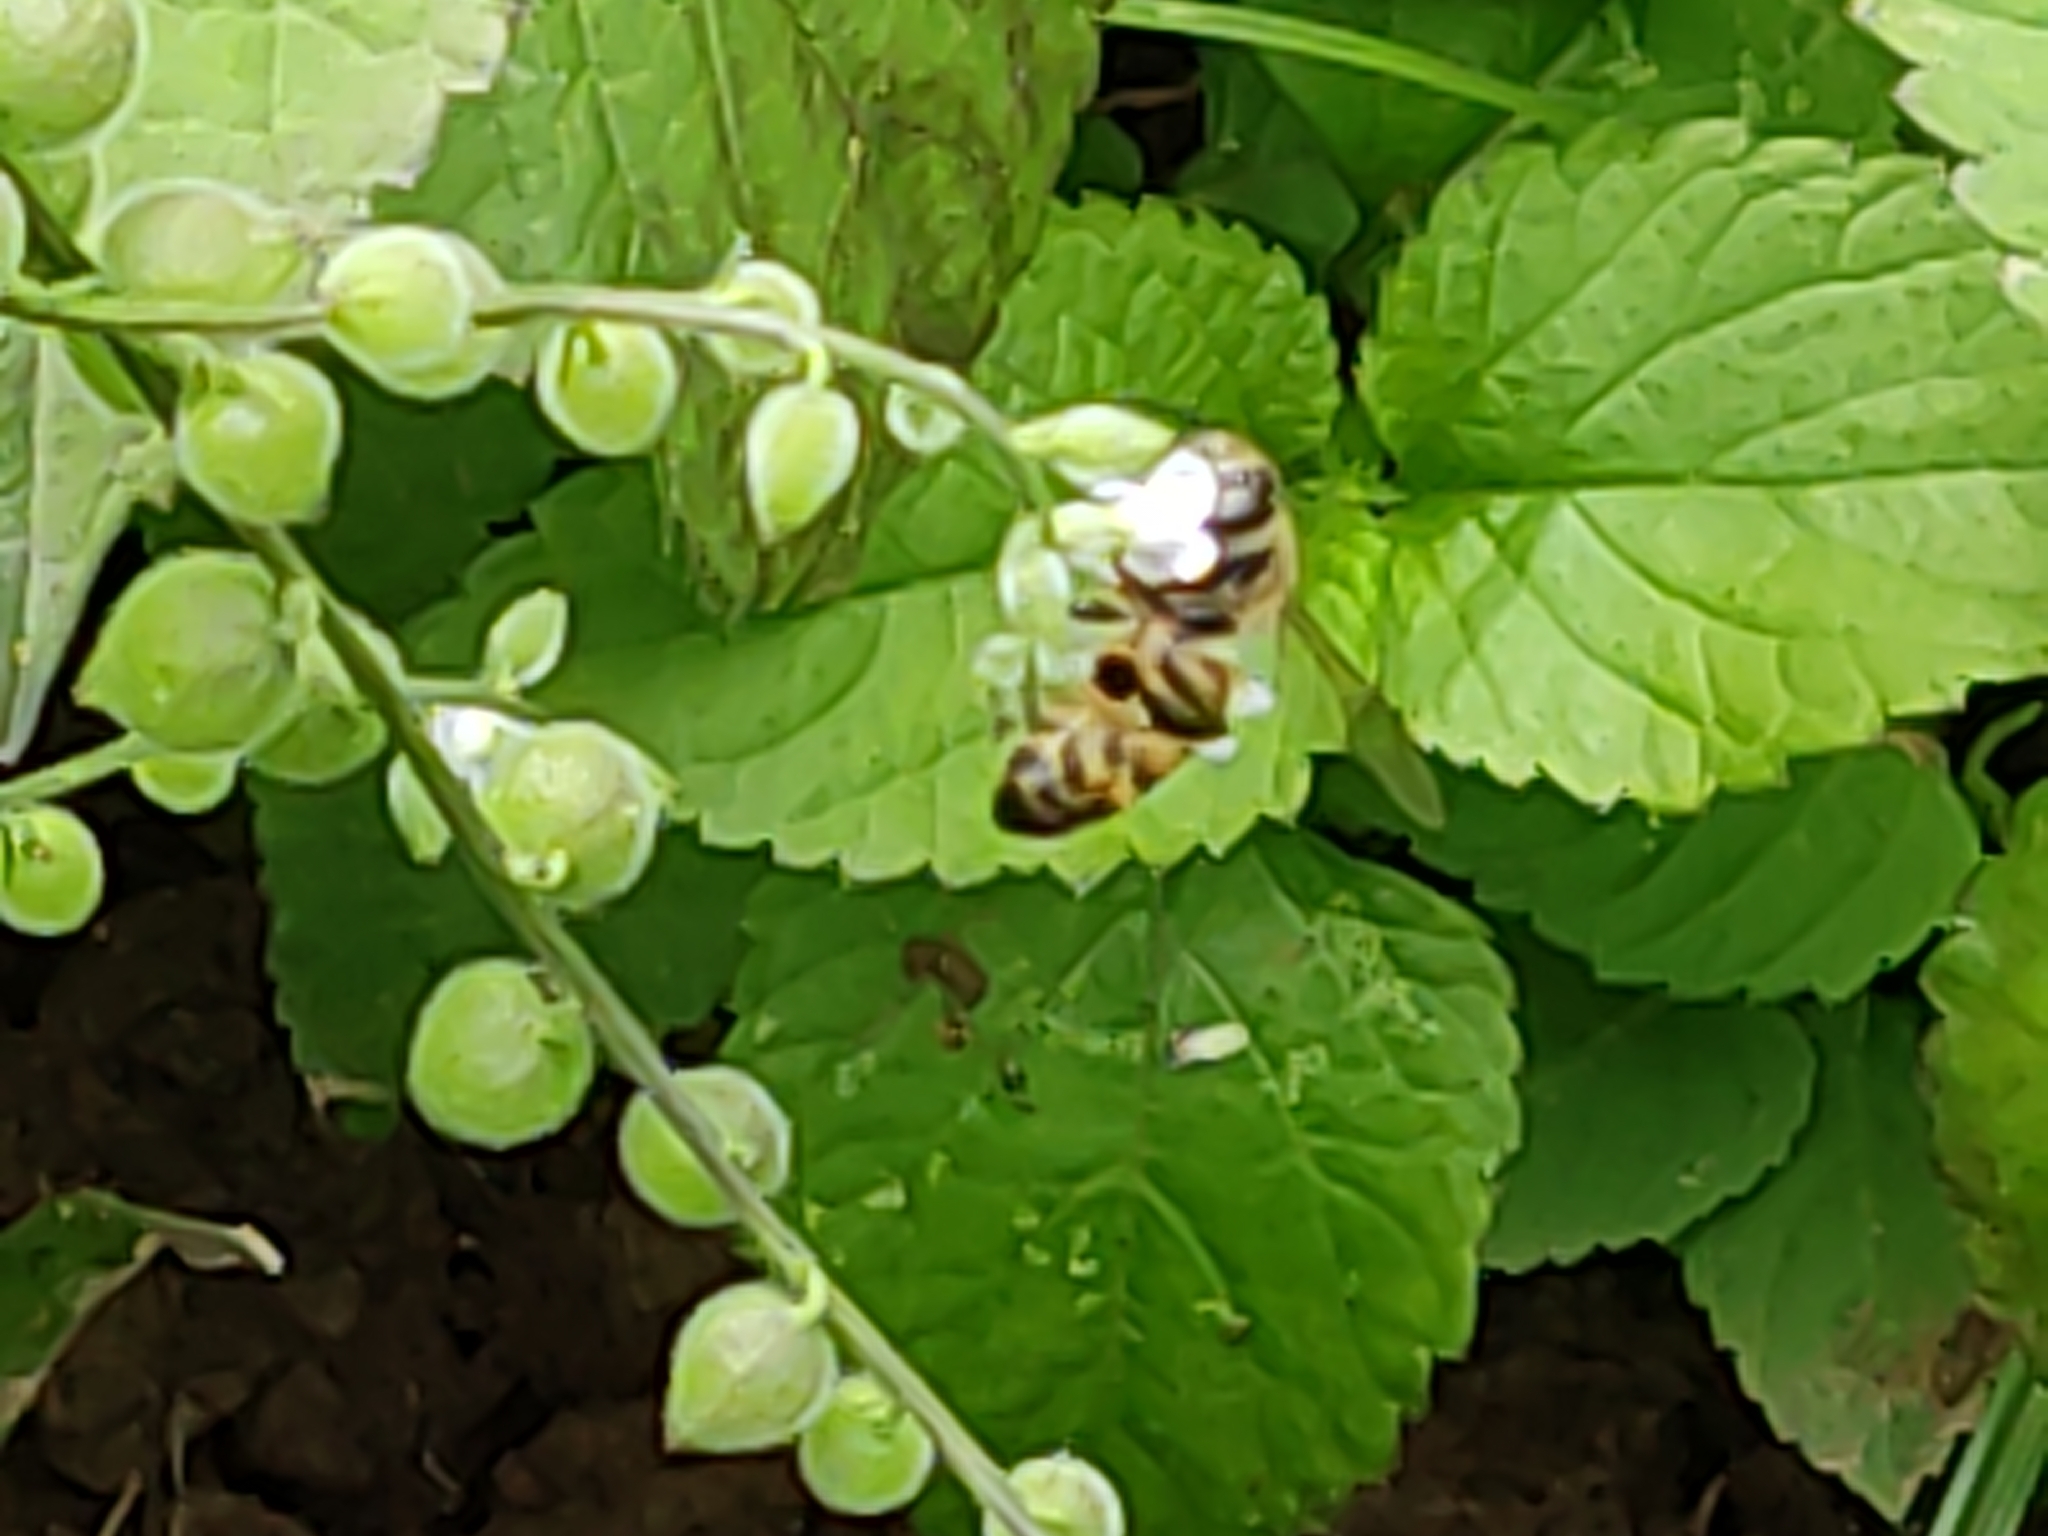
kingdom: Animalia
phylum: Arthropoda
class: Insecta
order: Hymenoptera
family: Apidae
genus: Apis
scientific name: Apis mellifera
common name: Honey bee
